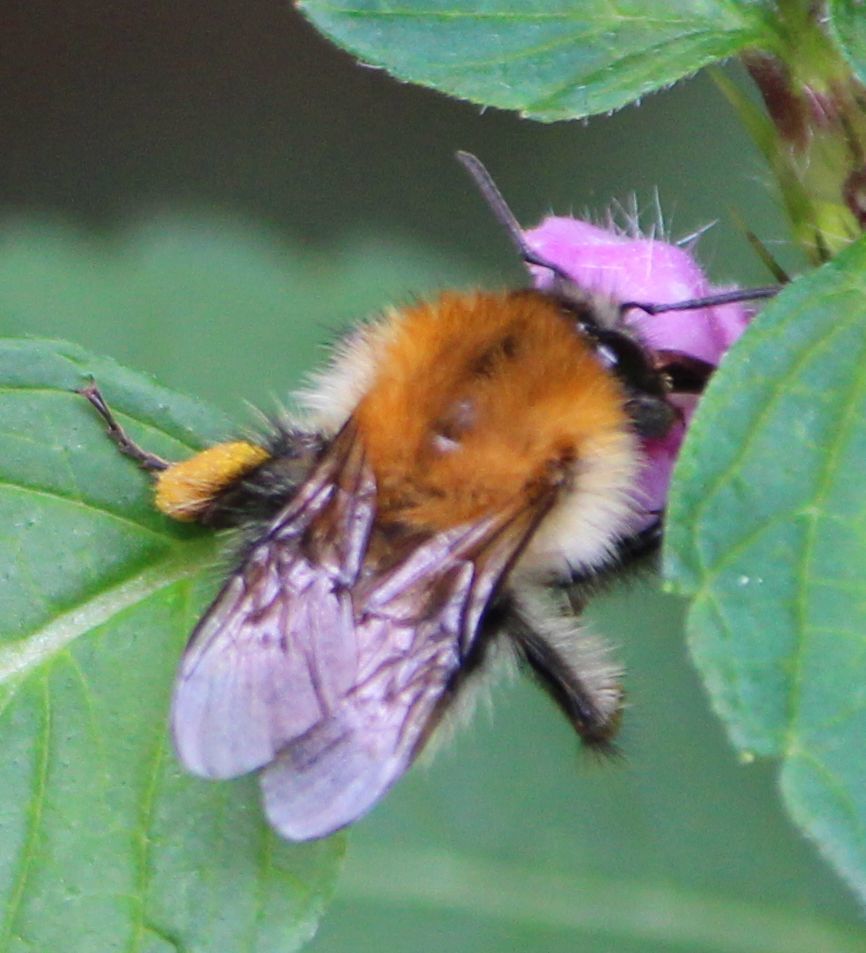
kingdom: Animalia
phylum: Arthropoda
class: Insecta
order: Hymenoptera
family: Apidae
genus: Bombus
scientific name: Bombus pascuorum
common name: Common carder bee
